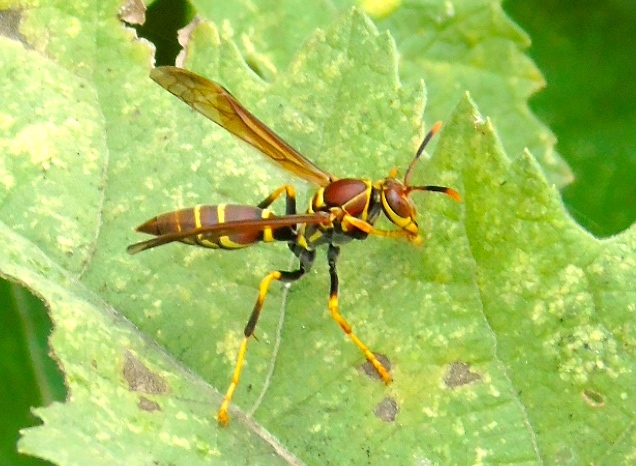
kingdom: Animalia
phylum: Arthropoda
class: Insecta
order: Hymenoptera
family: Eumenidae
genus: Polistes
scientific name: Polistes instabilis
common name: Unstable paper wasp
